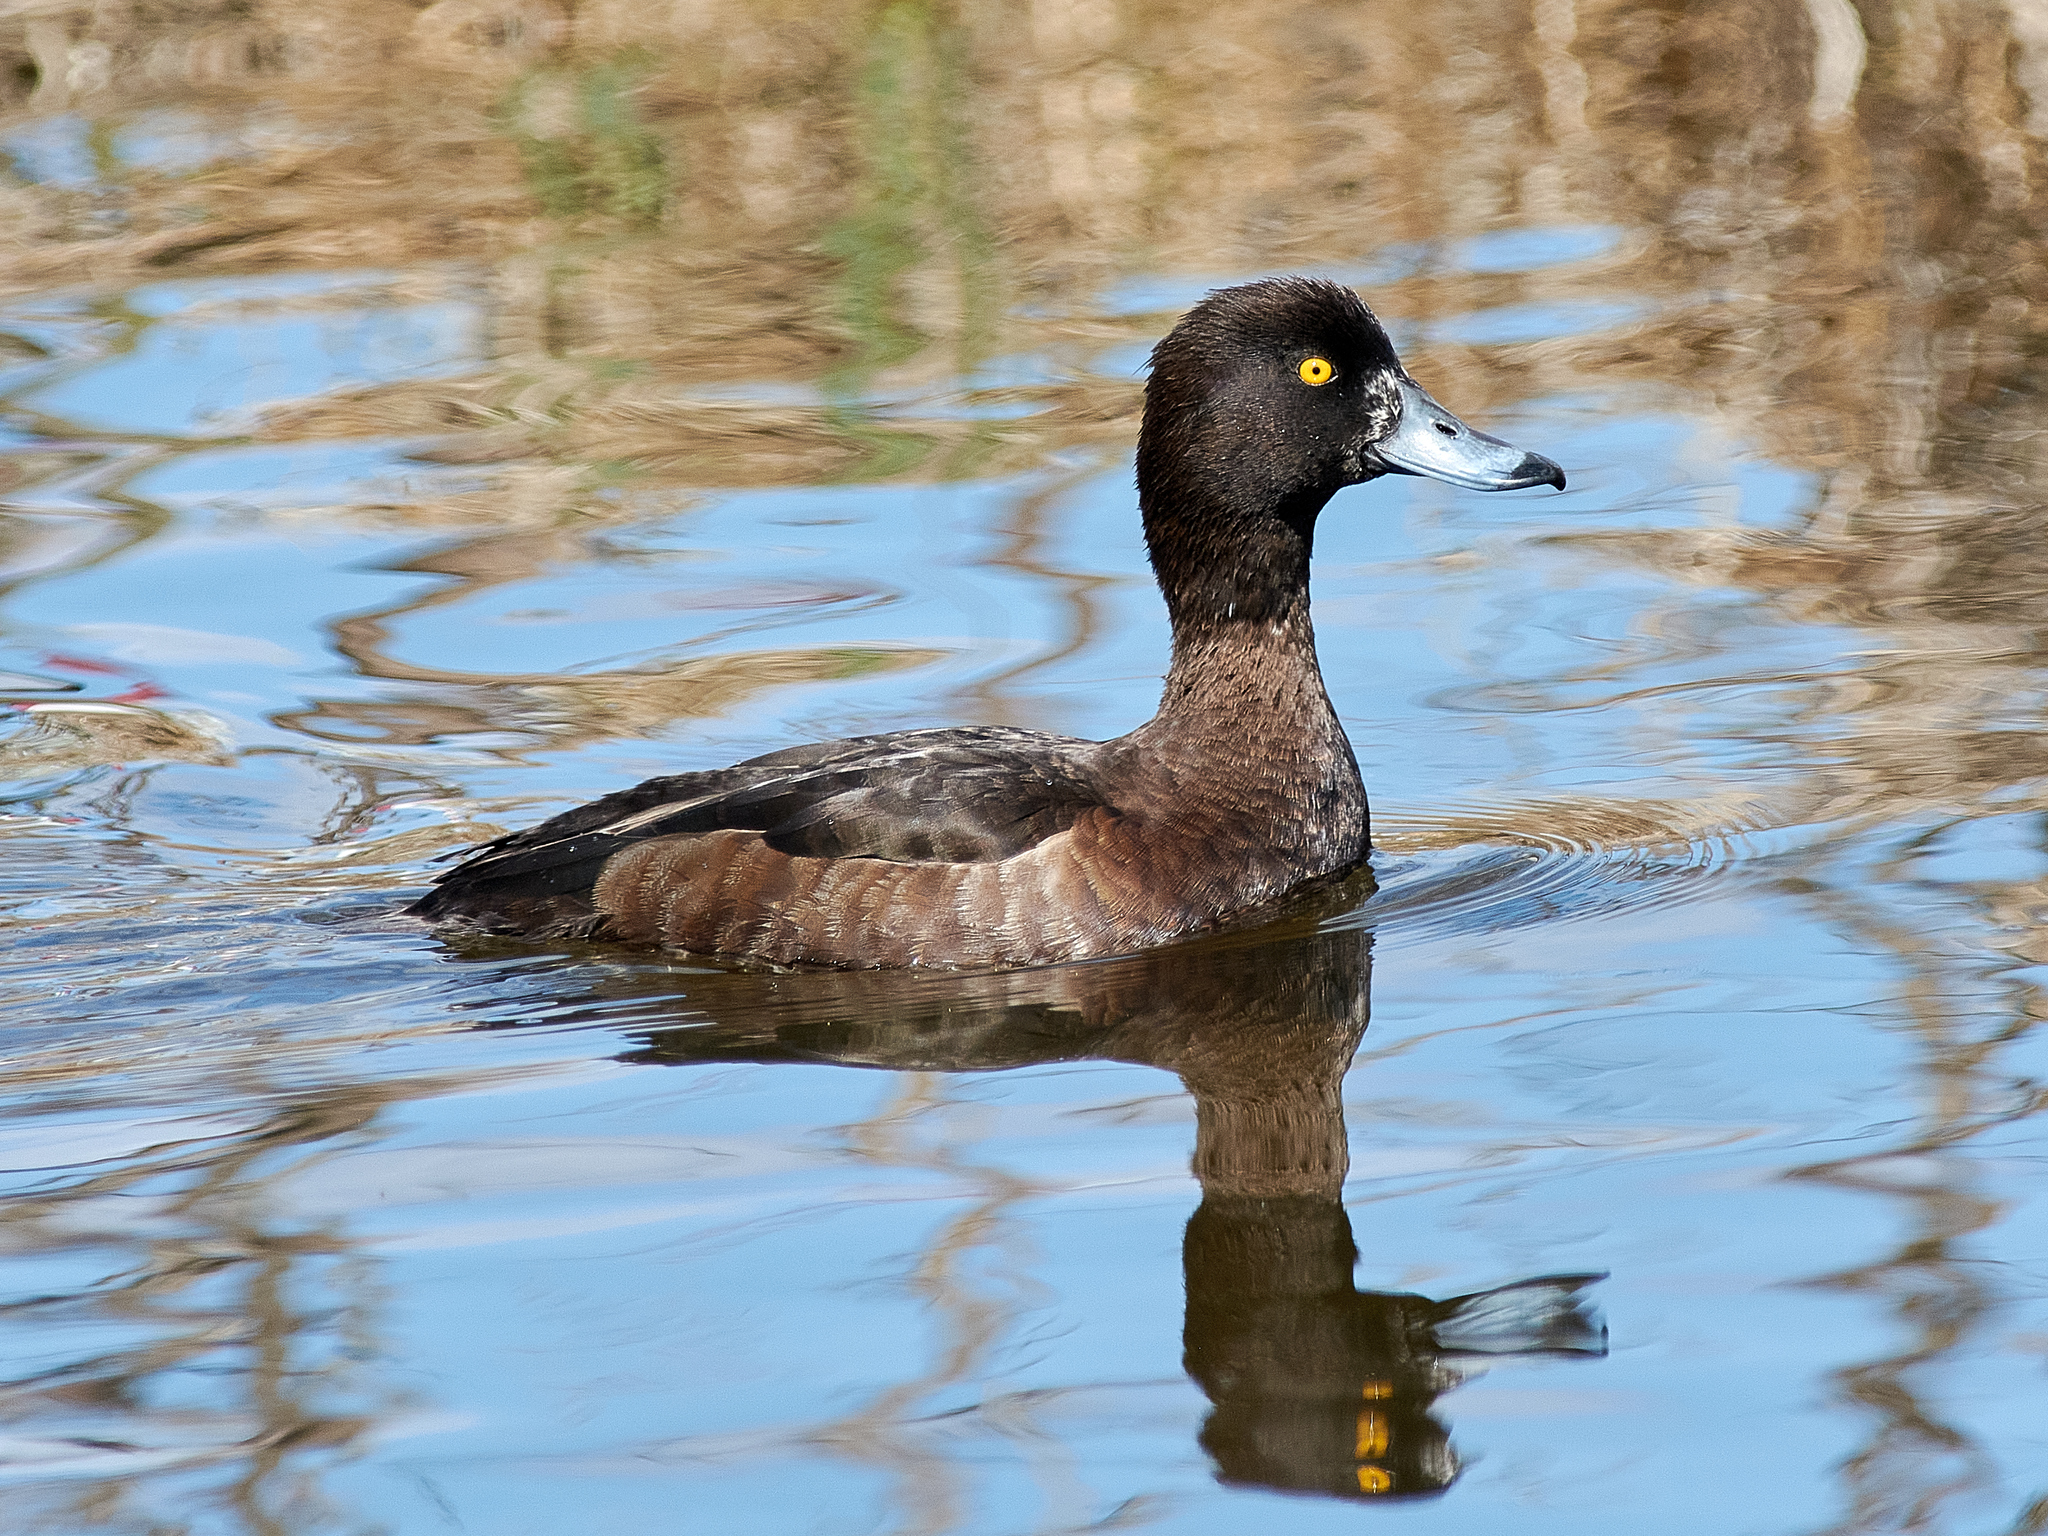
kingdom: Animalia
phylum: Chordata
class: Aves
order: Anseriformes
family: Anatidae
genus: Aythya
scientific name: Aythya fuligula
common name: Tufted duck
